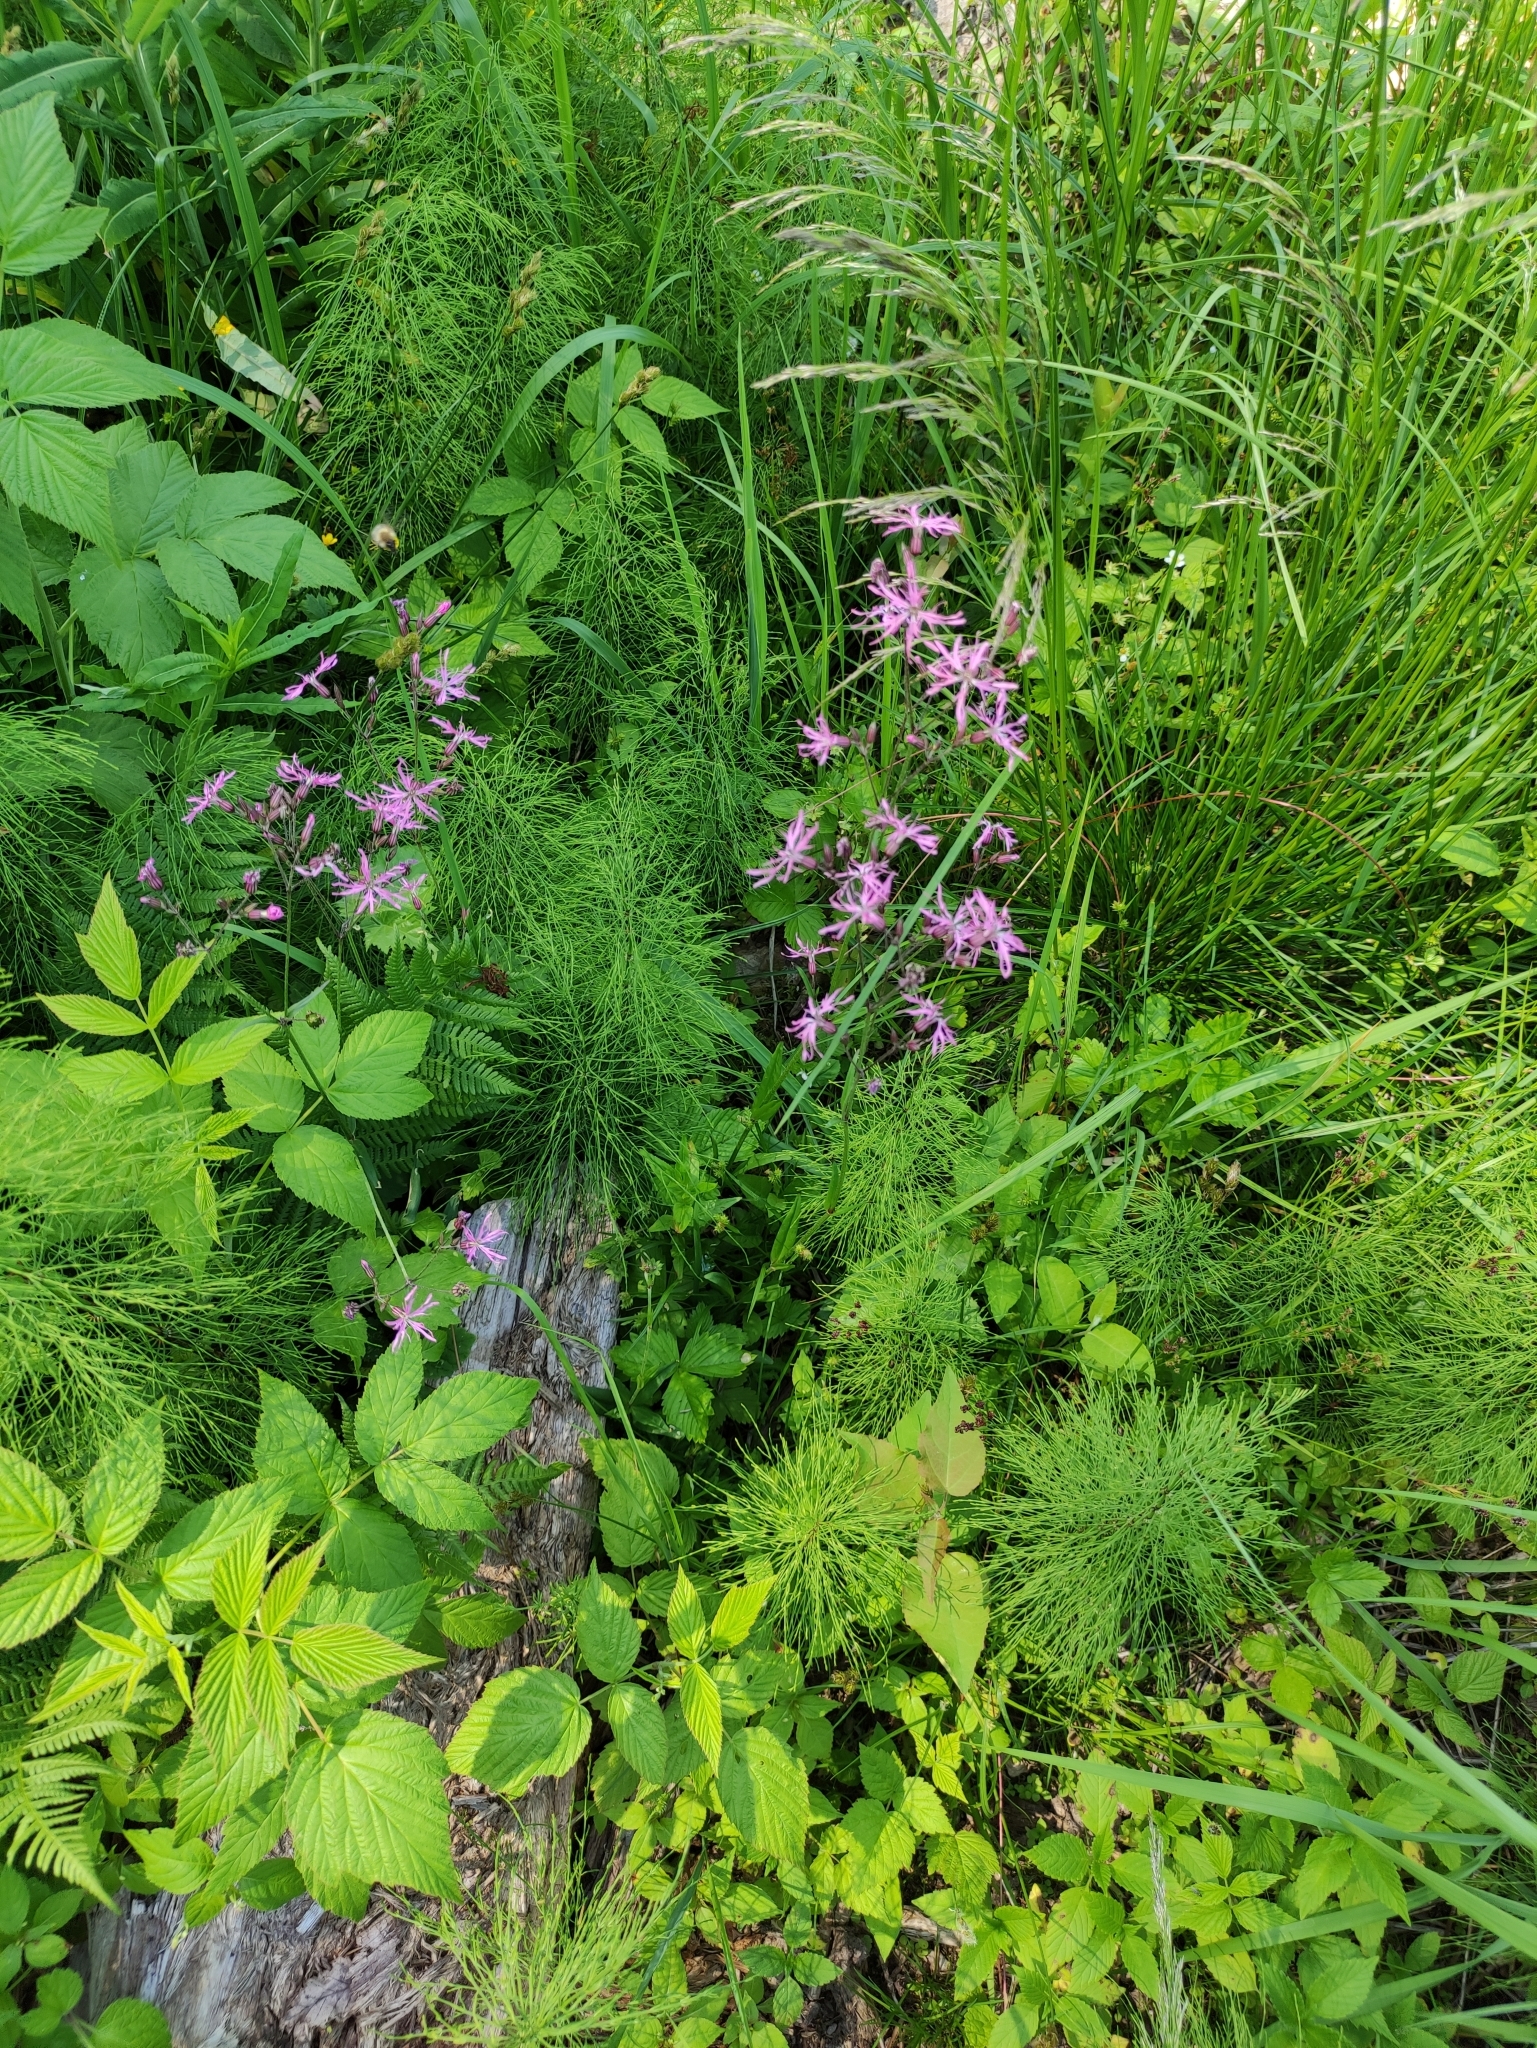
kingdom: Plantae
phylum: Tracheophyta
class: Magnoliopsida
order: Caryophyllales
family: Caryophyllaceae
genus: Silene
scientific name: Silene flos-cuculi
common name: Ragged-robin
